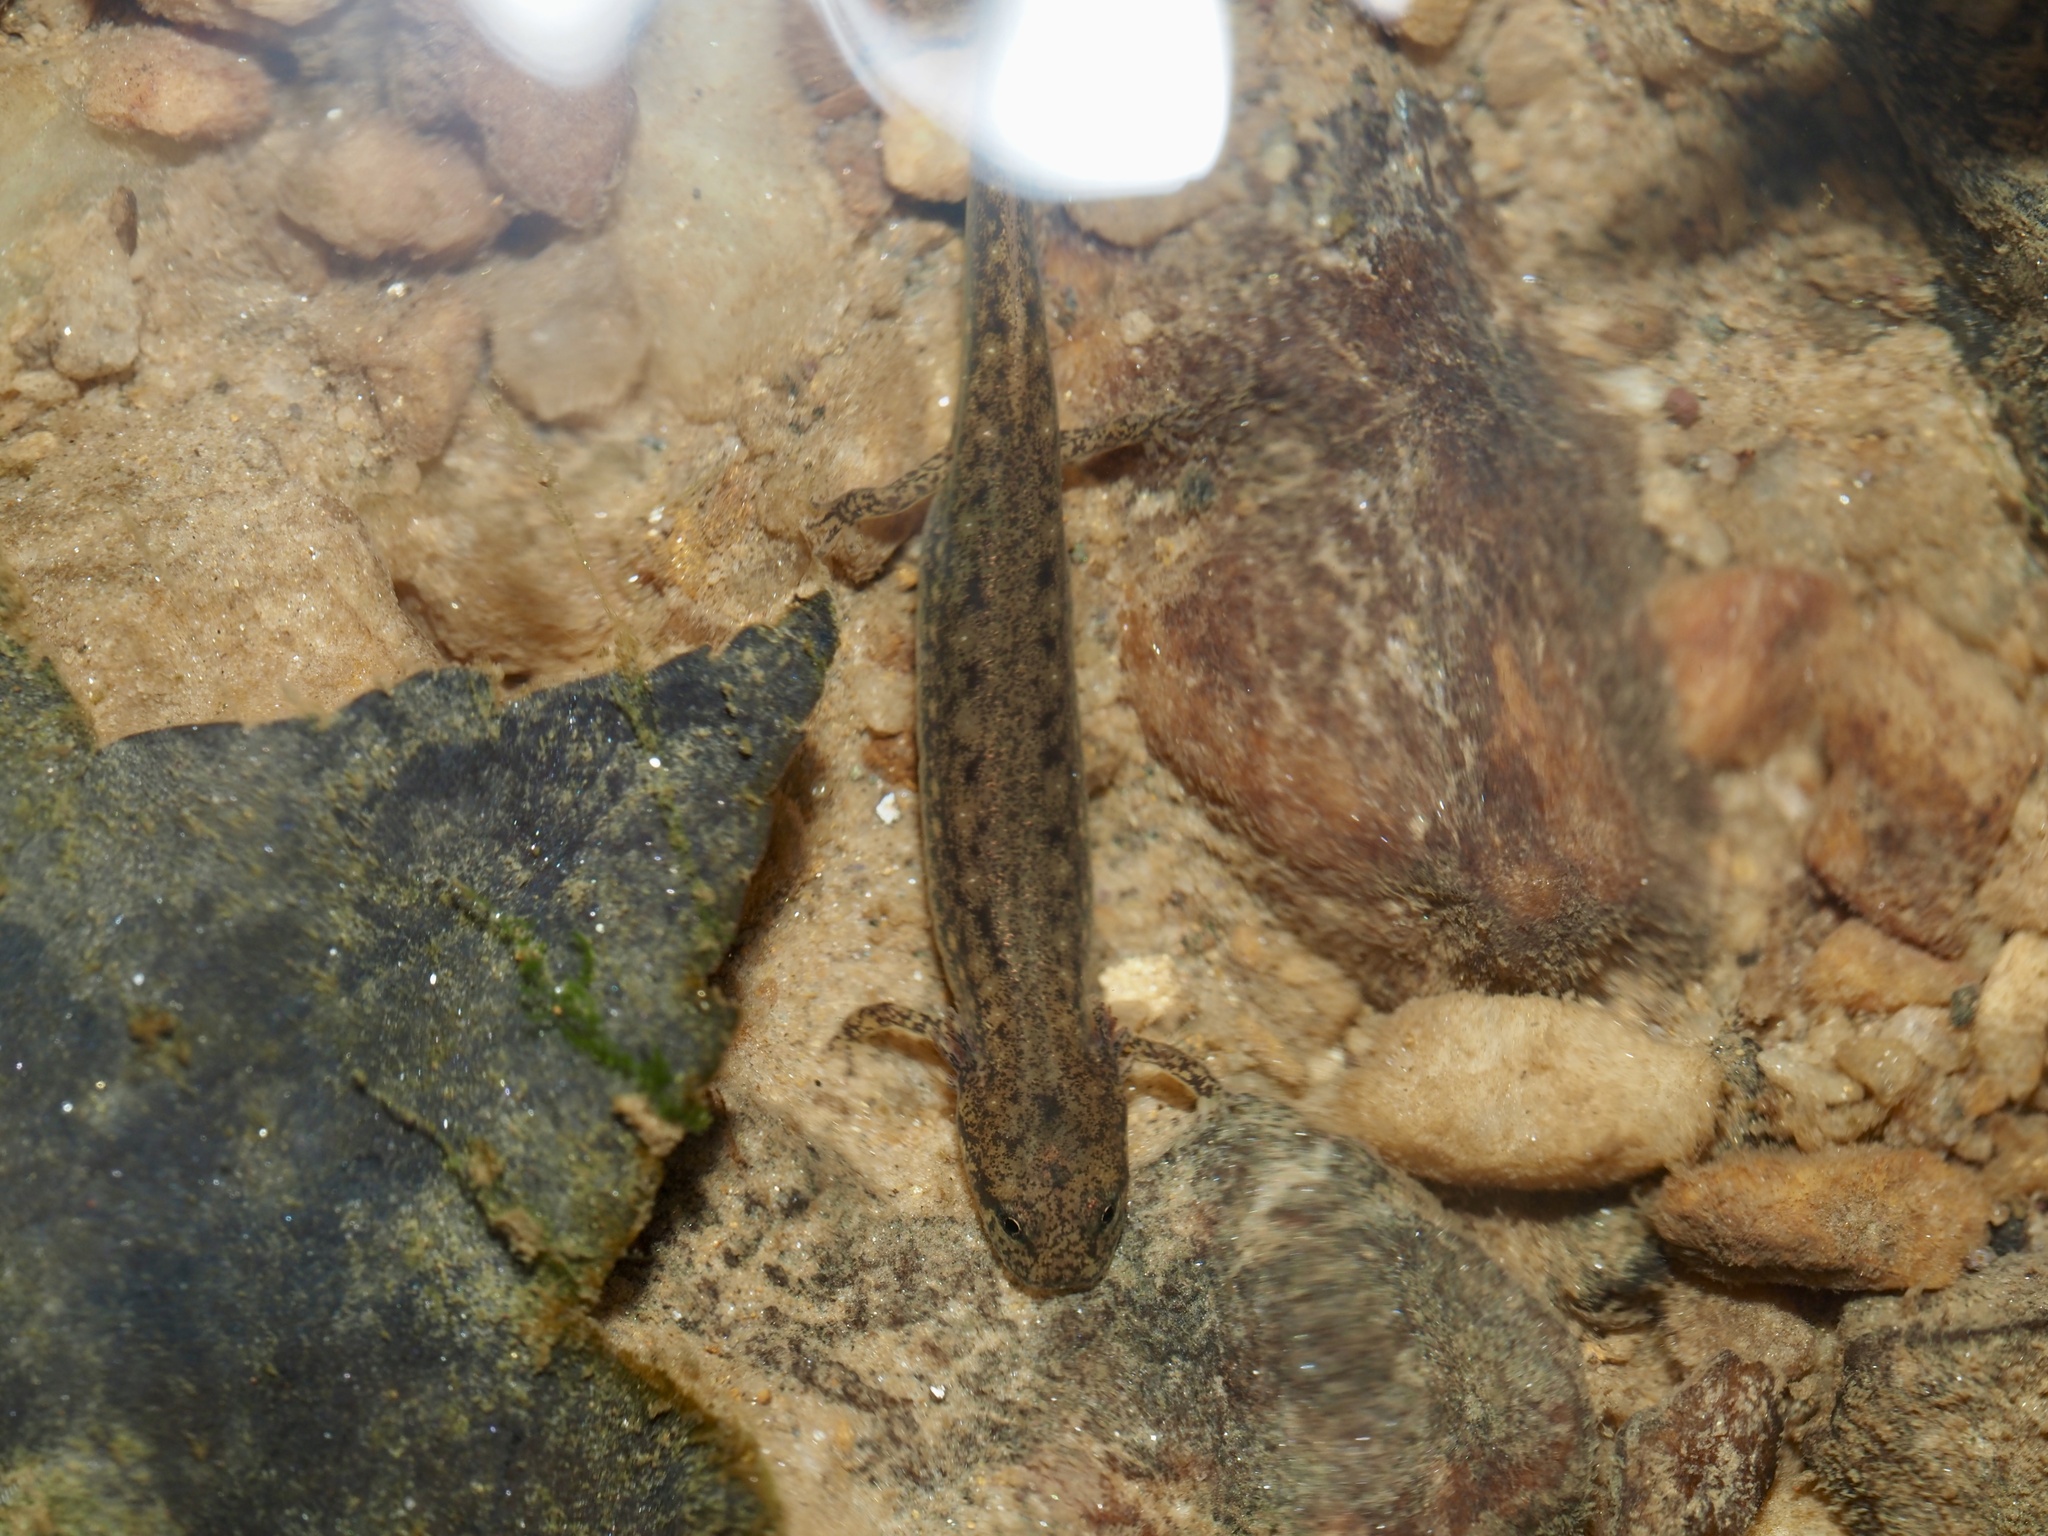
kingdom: Animalia
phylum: Chordata
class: Amphibia
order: Caudata
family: Plethodontidae
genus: Eurycea
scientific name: Eurycea bislineata
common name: Northern two-lined salamander
